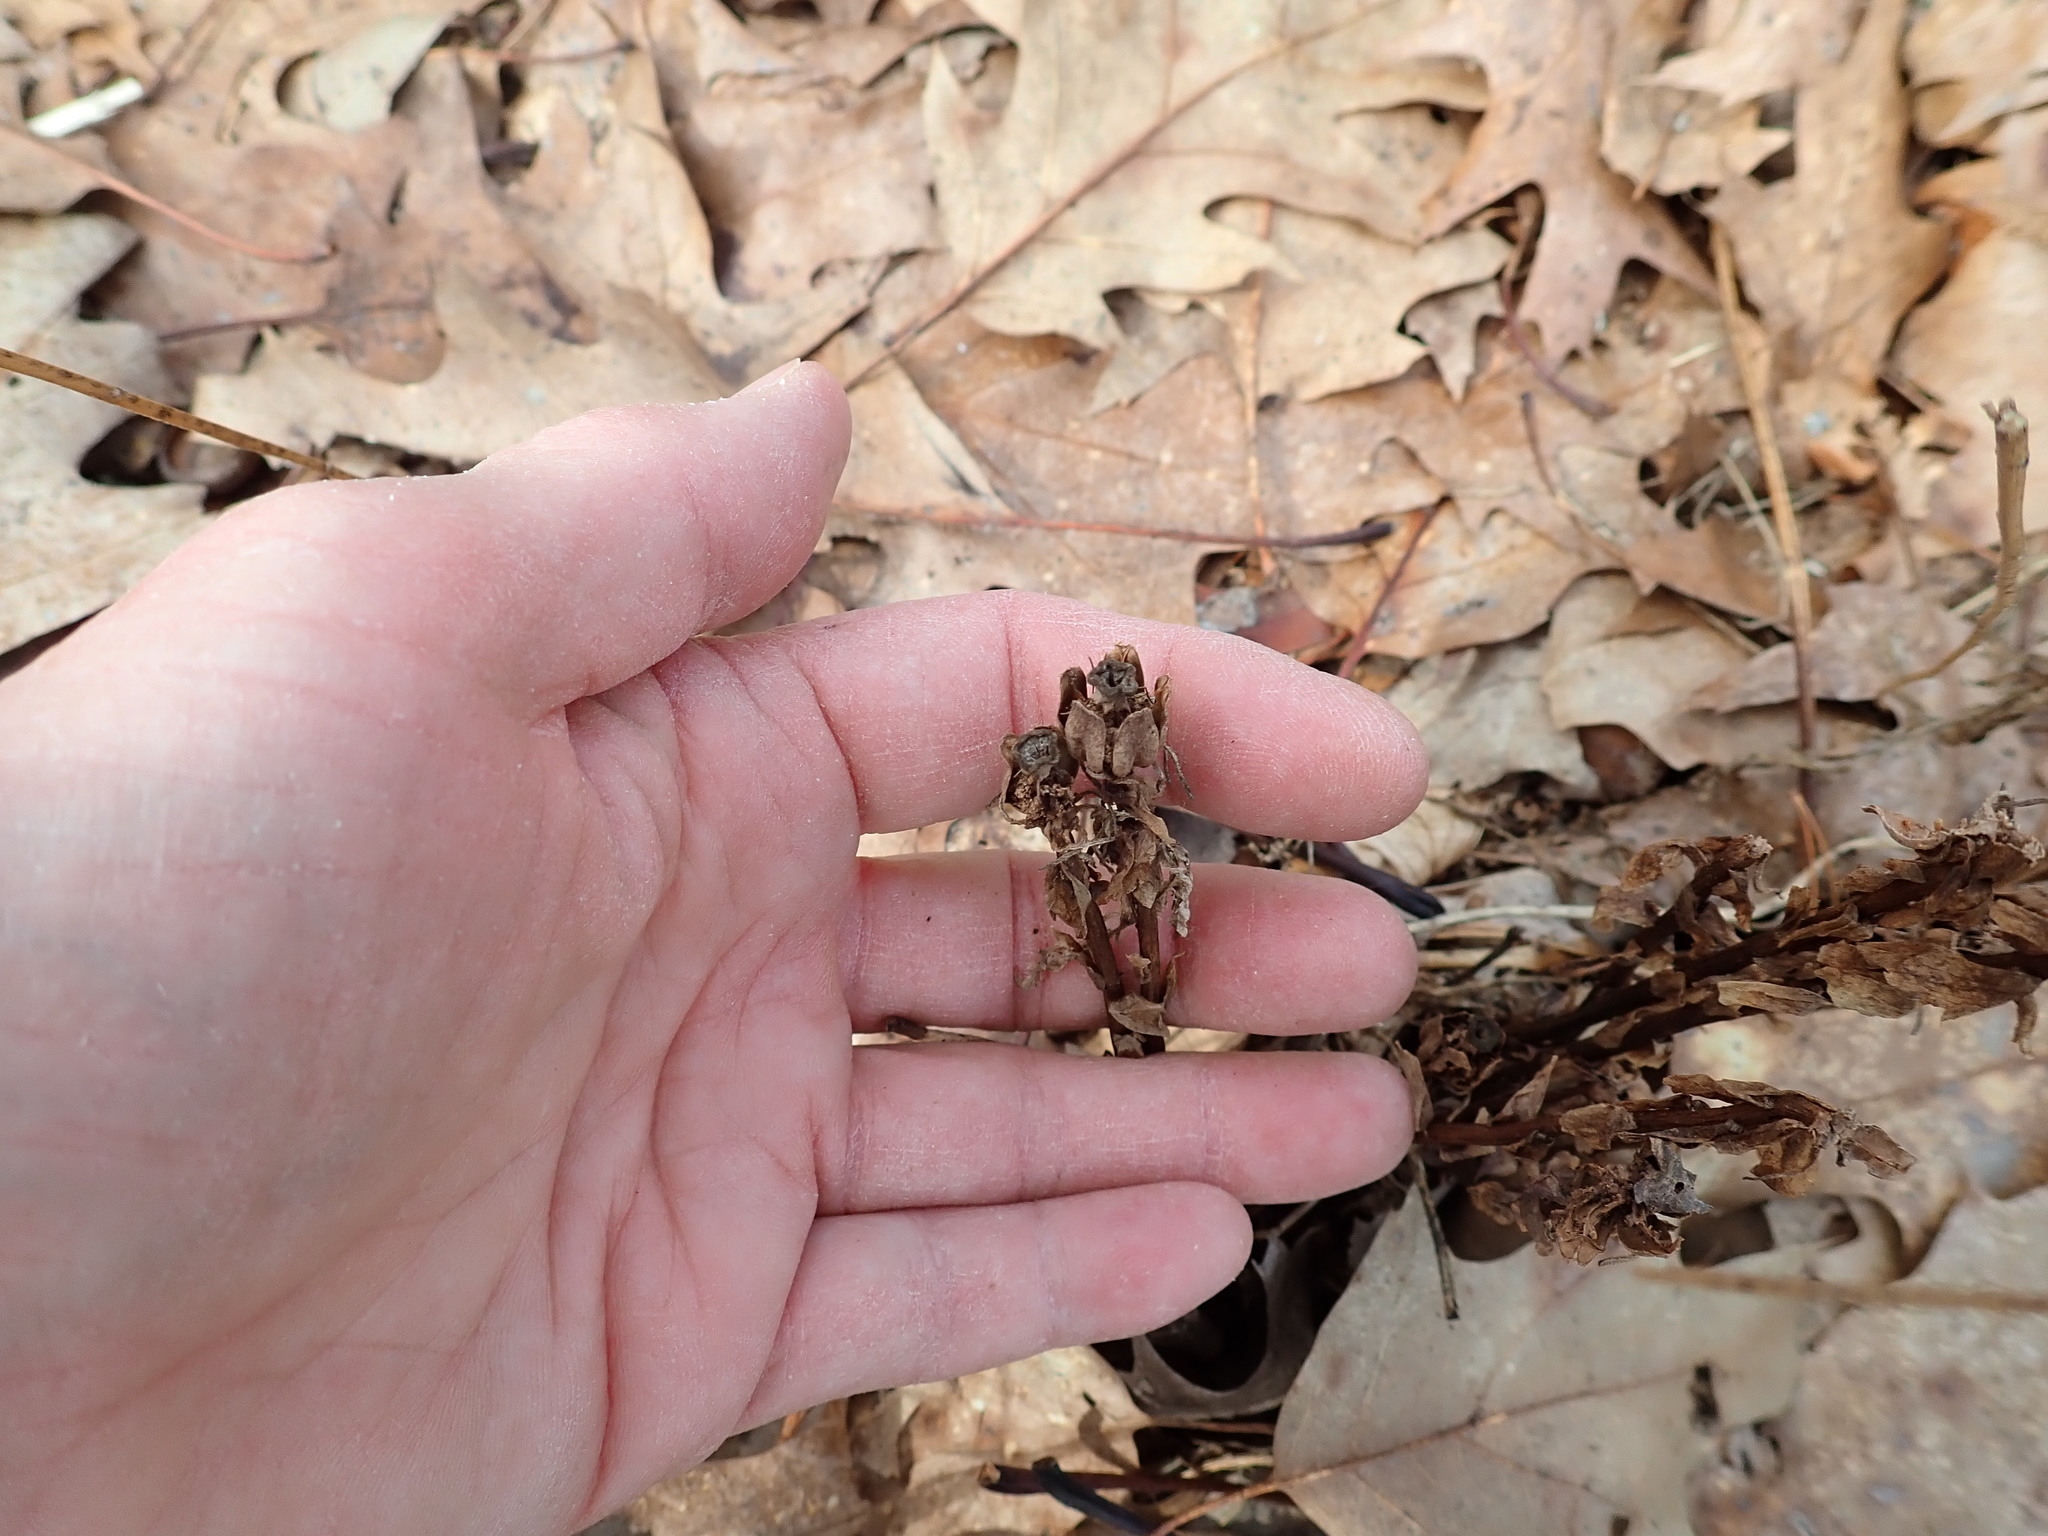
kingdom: Plantae
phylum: Tracheophyta
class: Magnoliopsida
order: Ericales
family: Ericaceae
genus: Monotropa
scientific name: Monotropa uniflora
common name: Convulsion root
